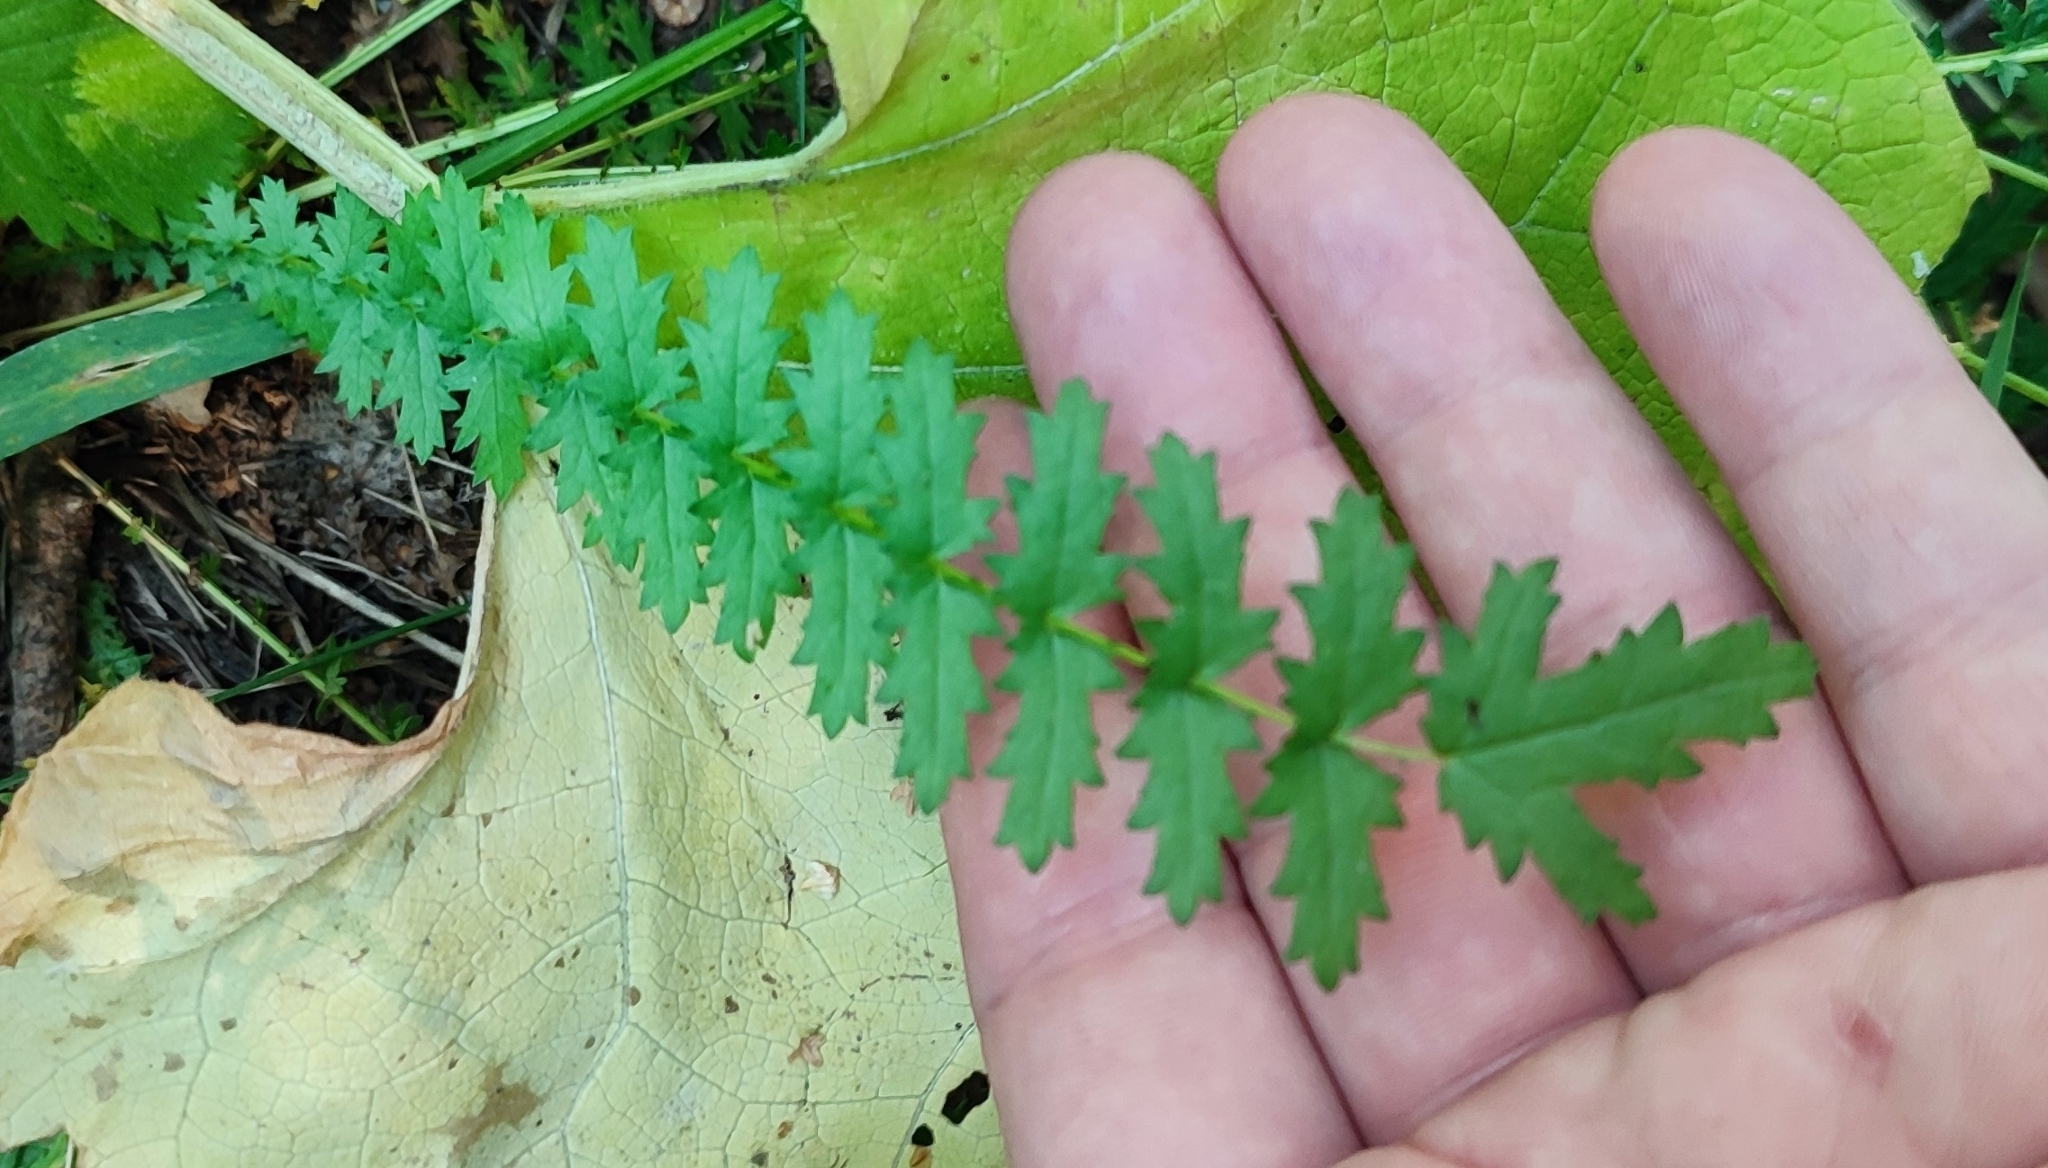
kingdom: Plantae
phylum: Tracheophyta
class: Magnoliopsida
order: Rosales
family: Rosaceae
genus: Filipendula
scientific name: Filipendula vulgaris
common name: Dropwort
